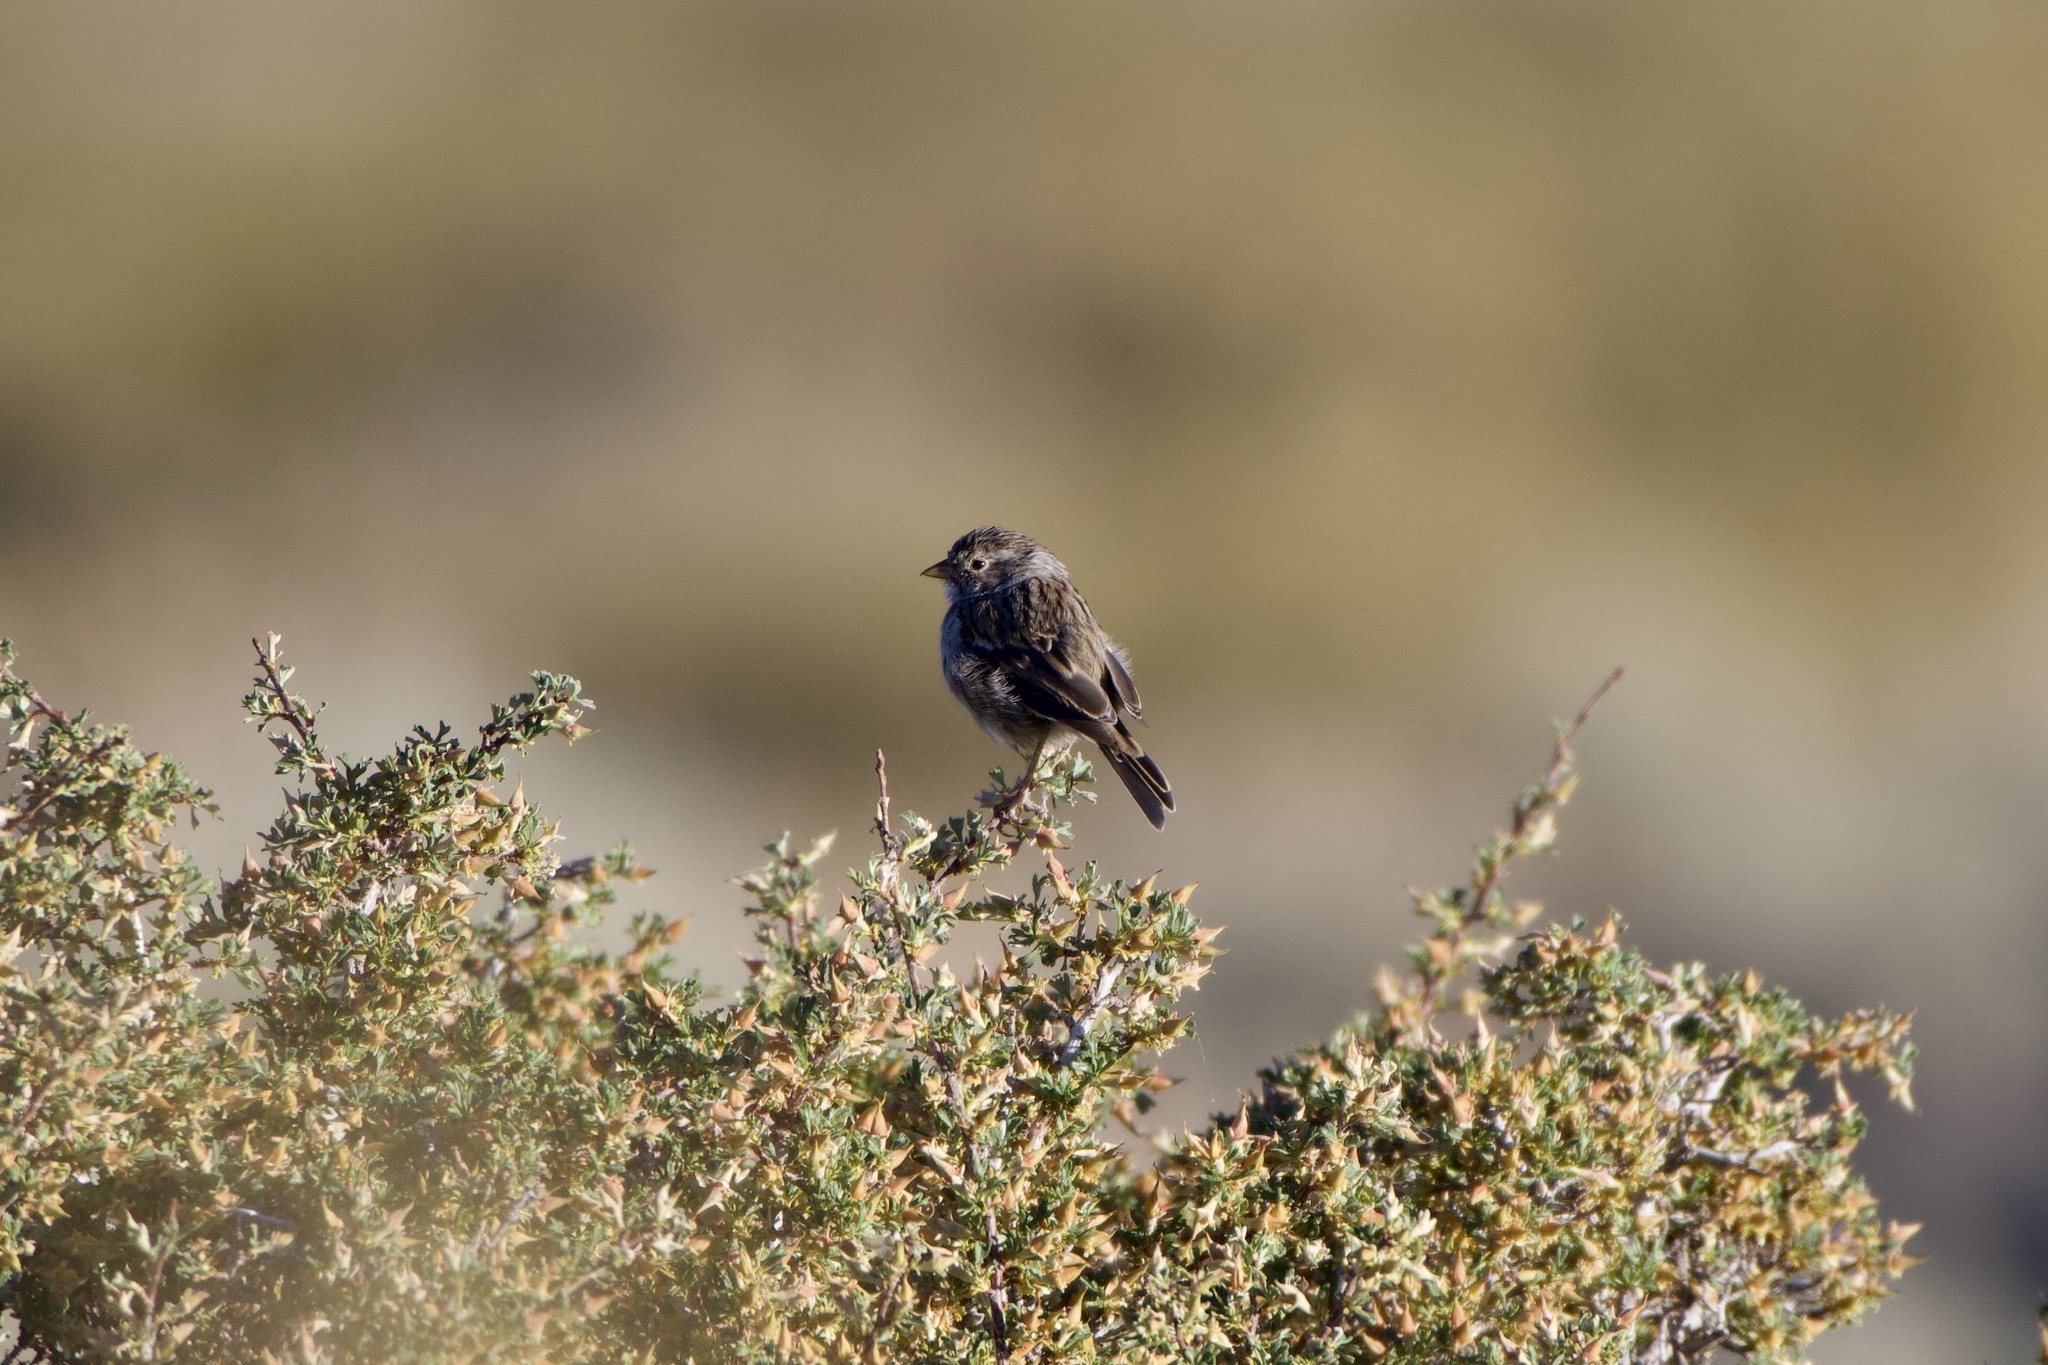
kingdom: Animalia
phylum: Chordata
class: Aves
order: Passeriformes
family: Passerellidae
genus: Spizella
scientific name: Spizella breweri
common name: Brewer's sparrow
